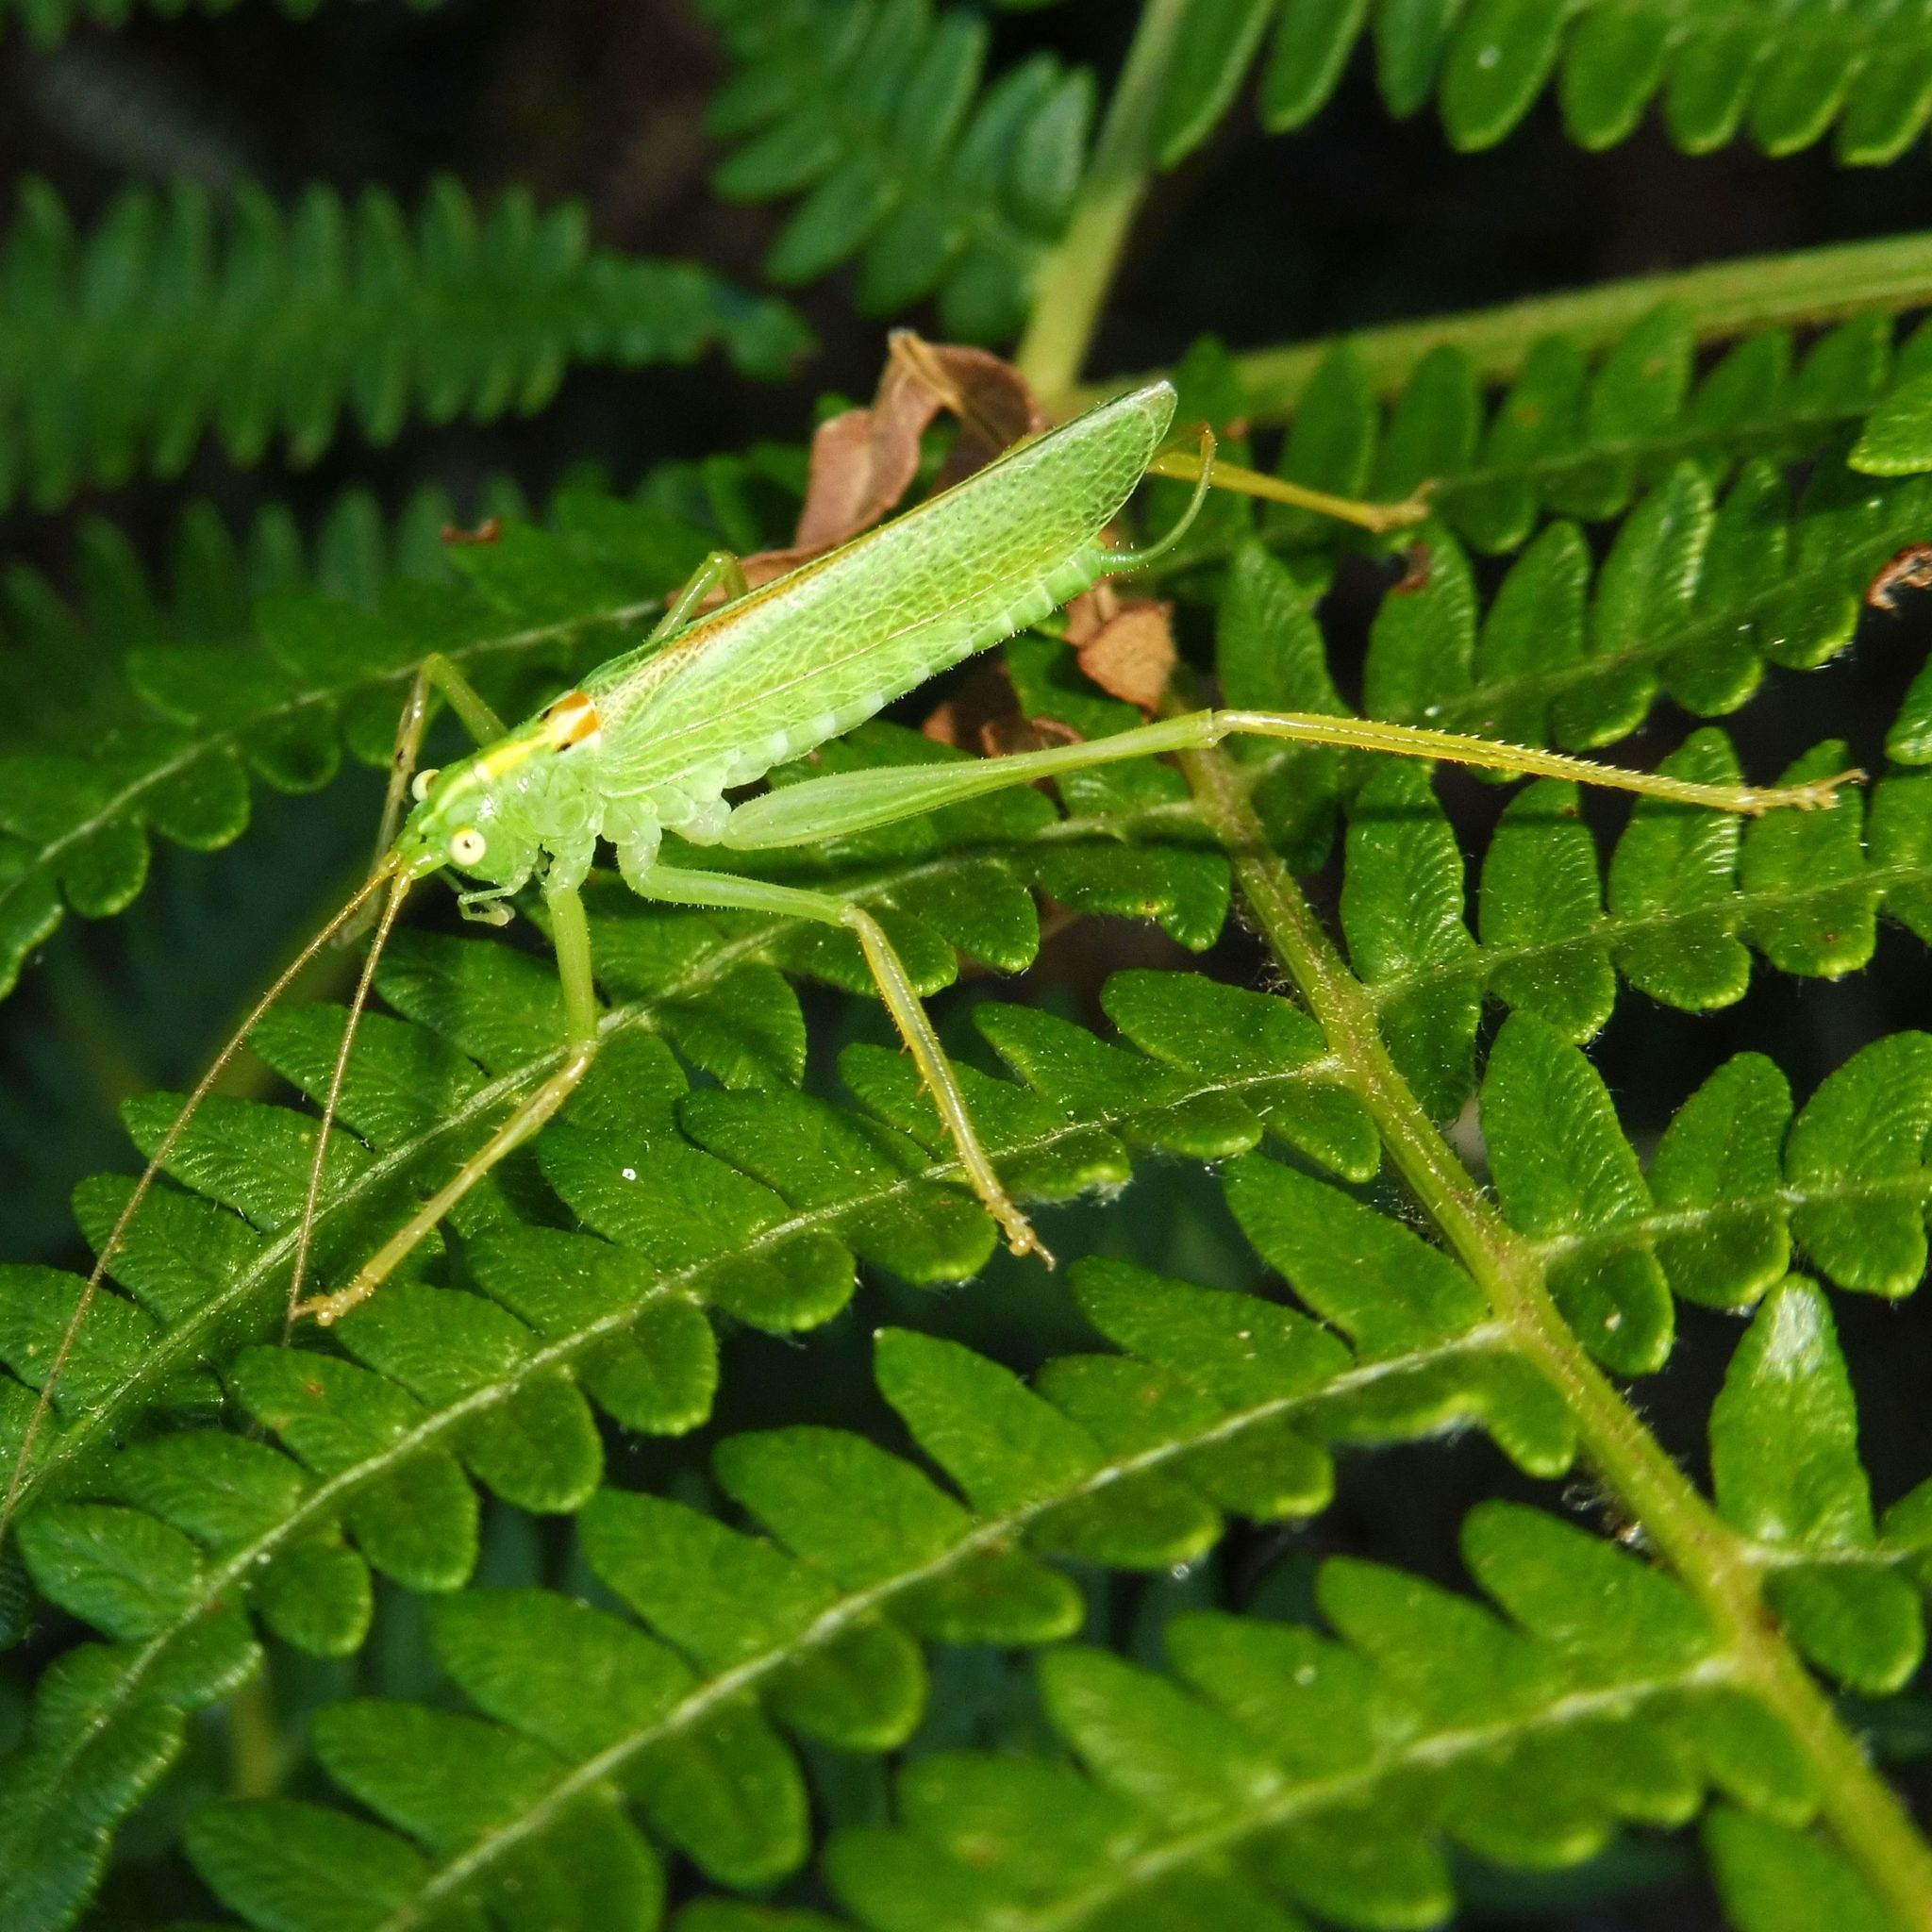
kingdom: Animalia
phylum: Arthropoda
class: Insecta
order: Orthoptera
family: Tettigoniidae
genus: Meconema
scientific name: Meconema thalassinum
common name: Oak bush-cricket
